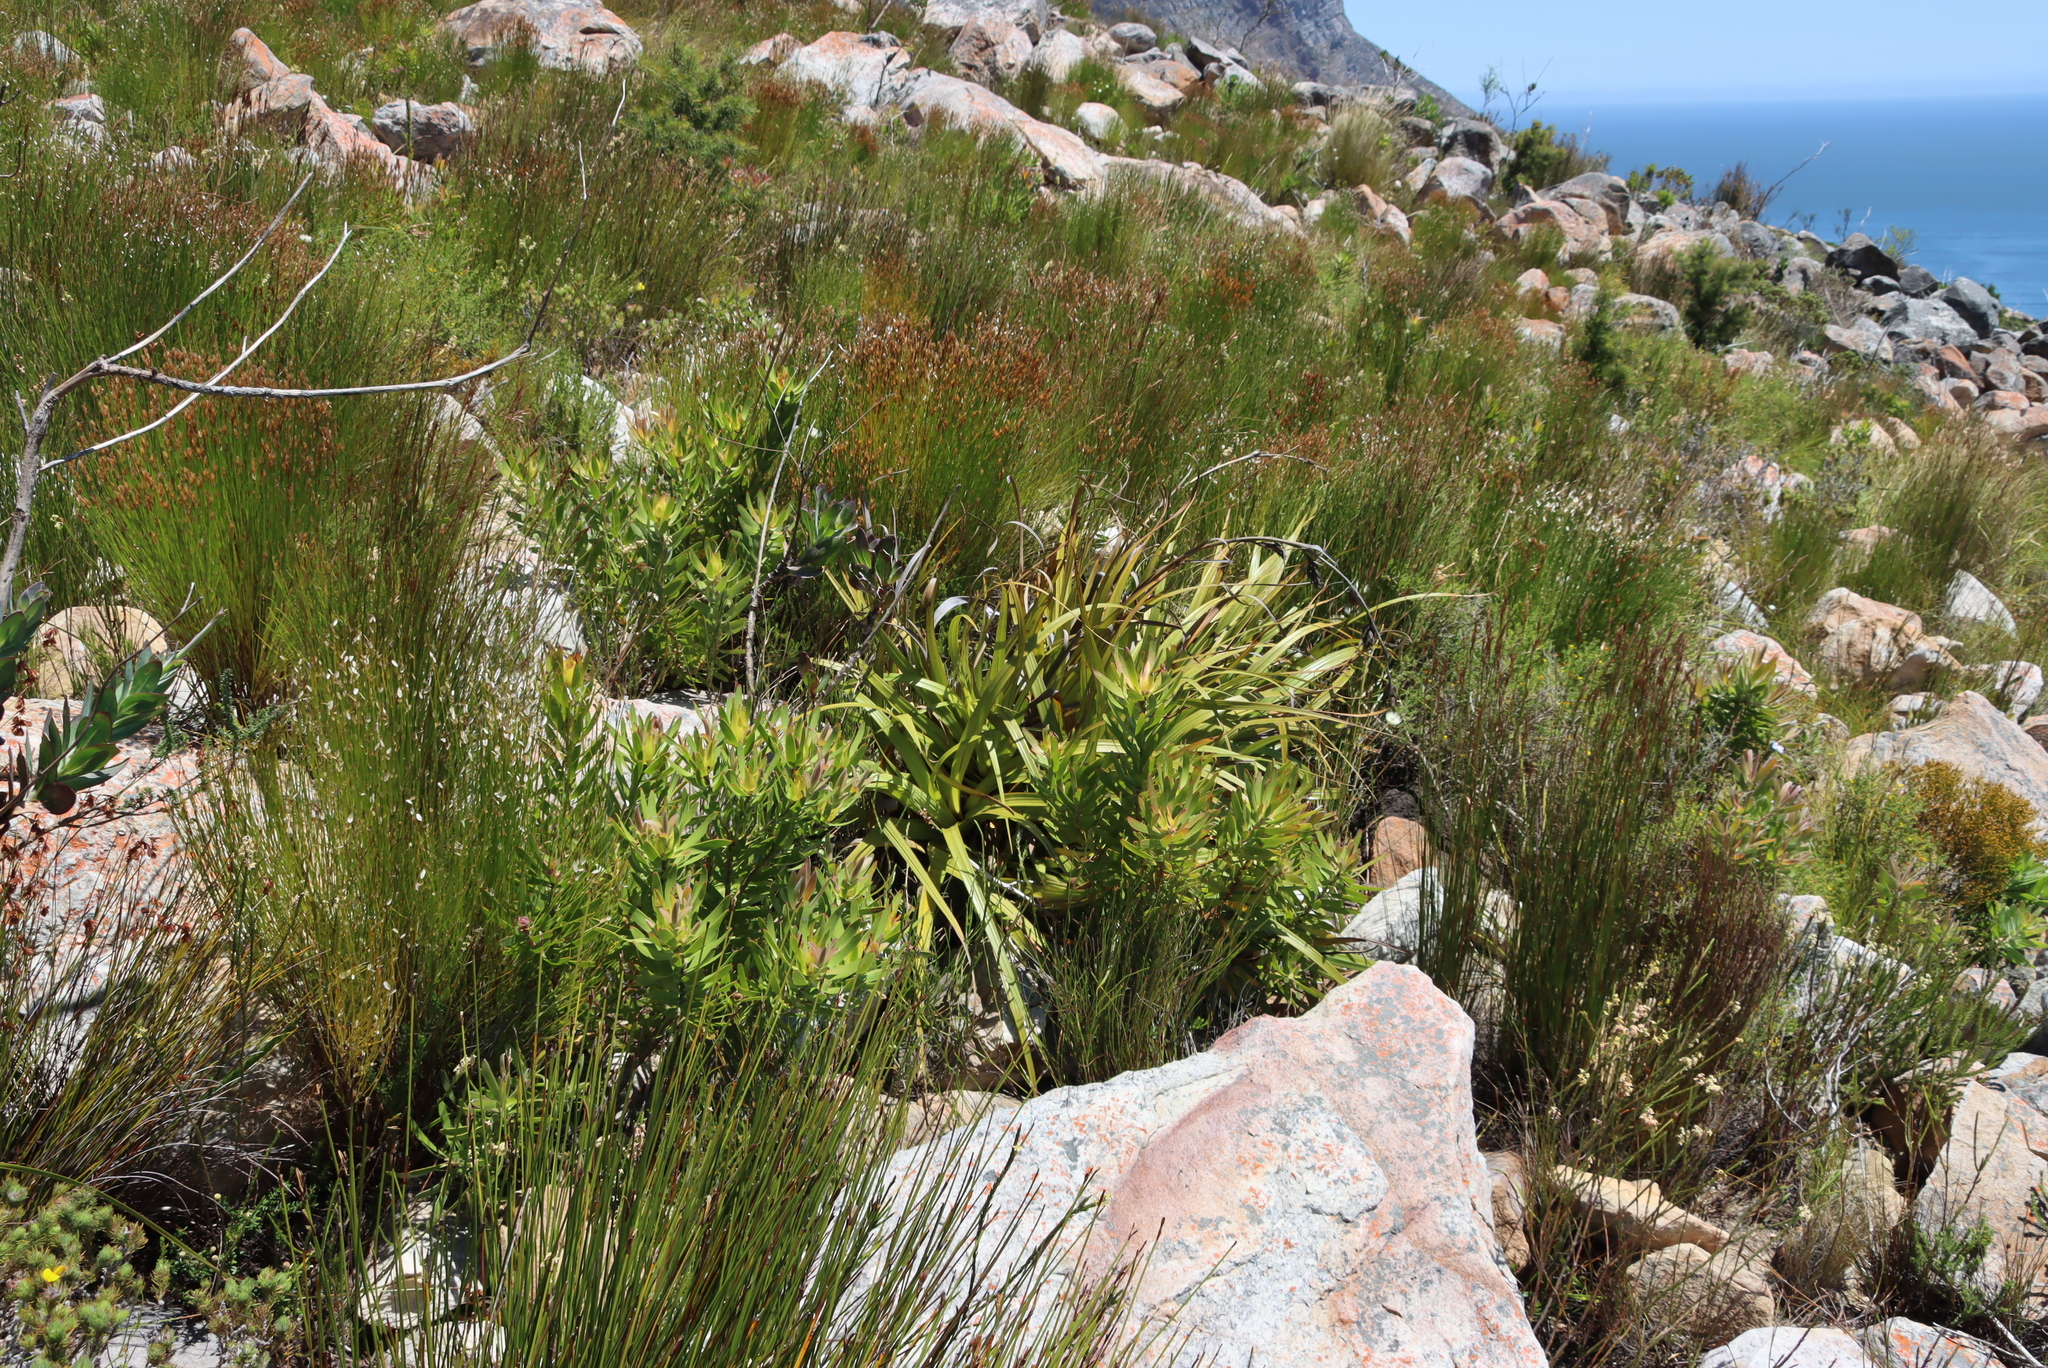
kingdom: Plantae
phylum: Tracheophyta
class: Liliopsida
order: Poales
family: Cyperaceae
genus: Tetraria
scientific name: Tetraria thermalis
